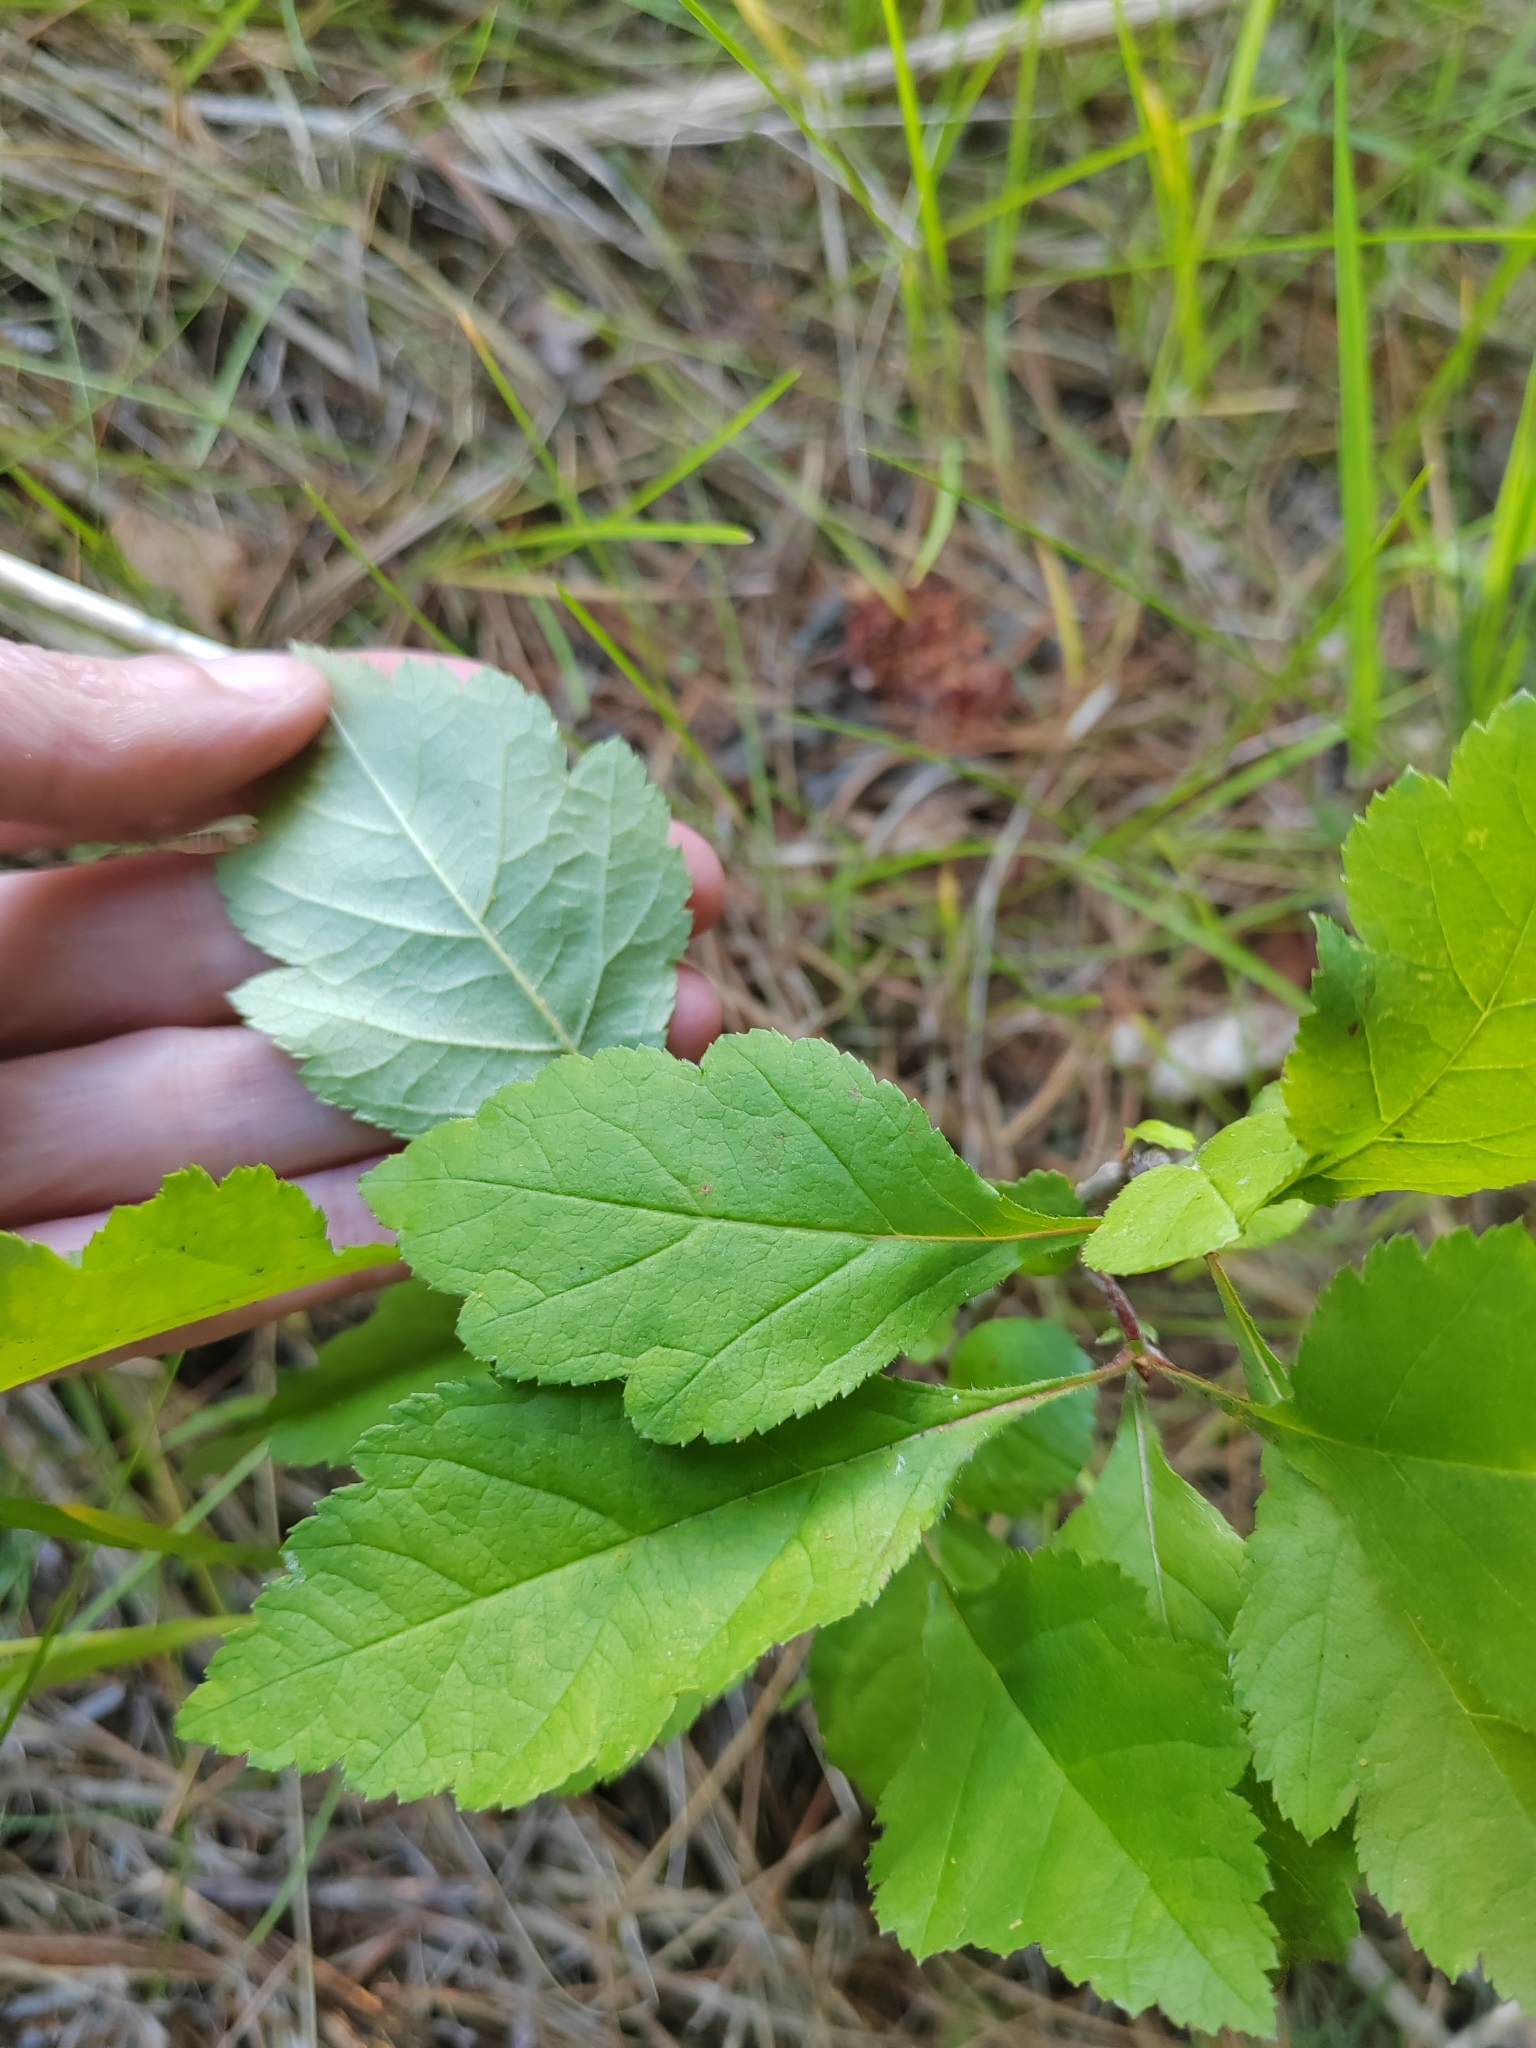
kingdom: Plantae
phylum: Tracheophyta
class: Magnoliopsida
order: Rosales
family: Rosaceae
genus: Crataegus
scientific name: Crataegus sanguinea
